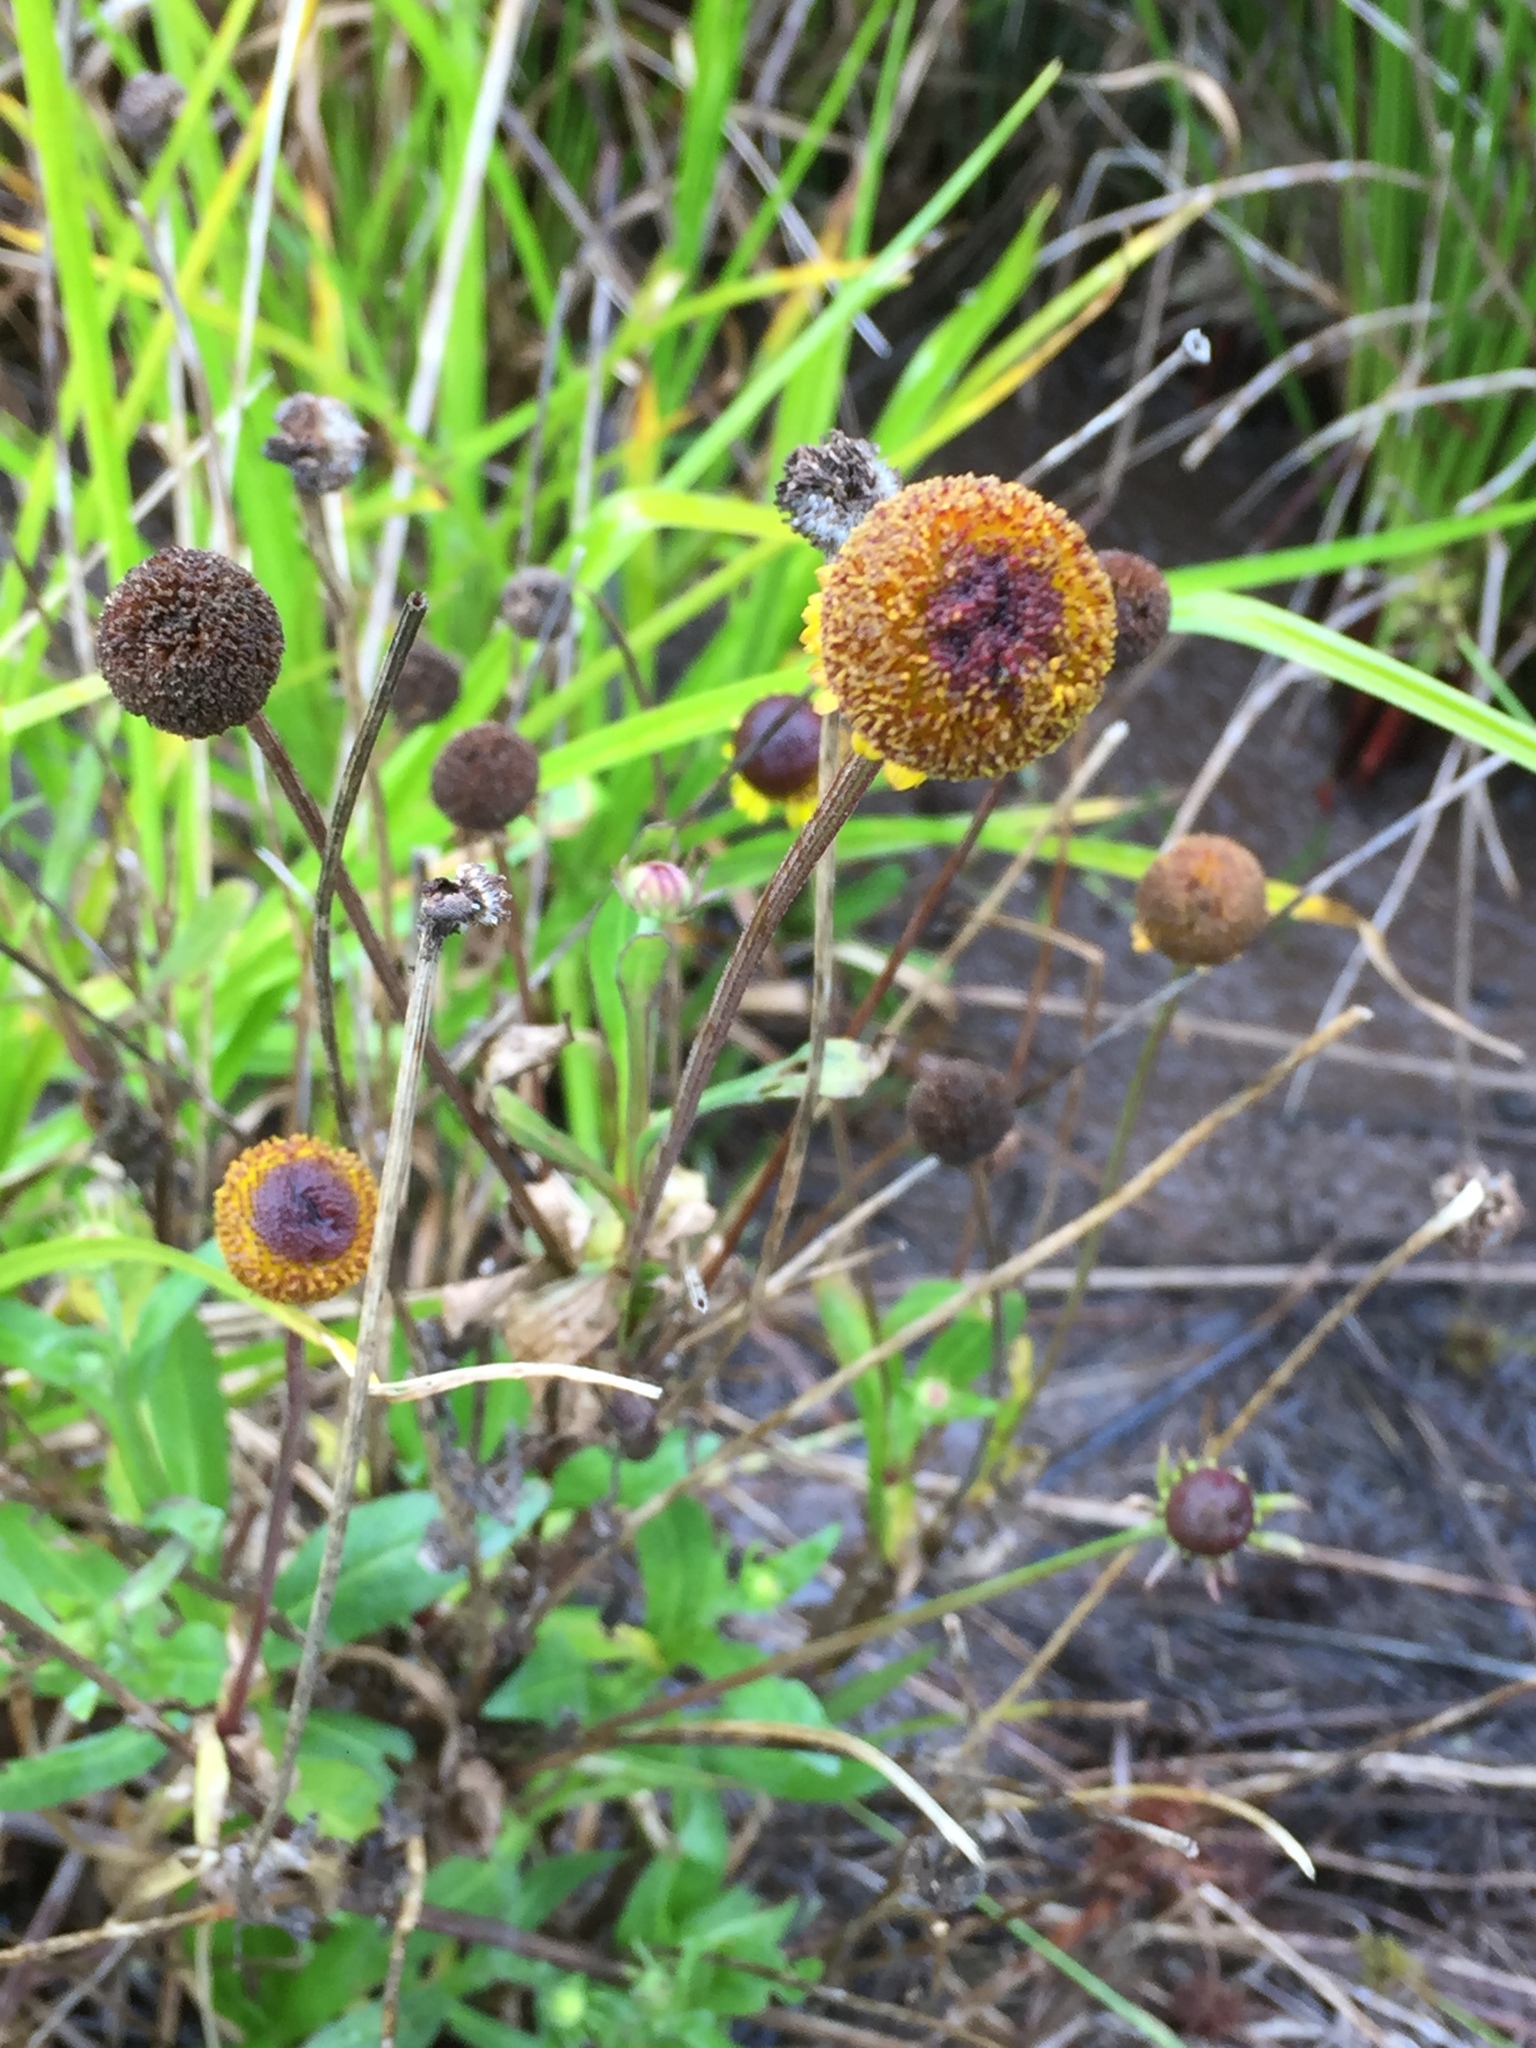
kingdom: Plantae
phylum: Tracheophyta
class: Magnoliopsida
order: Asterales
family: Asteraceae
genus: Helenium
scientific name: Helenium puberulum
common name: Sneezewort
